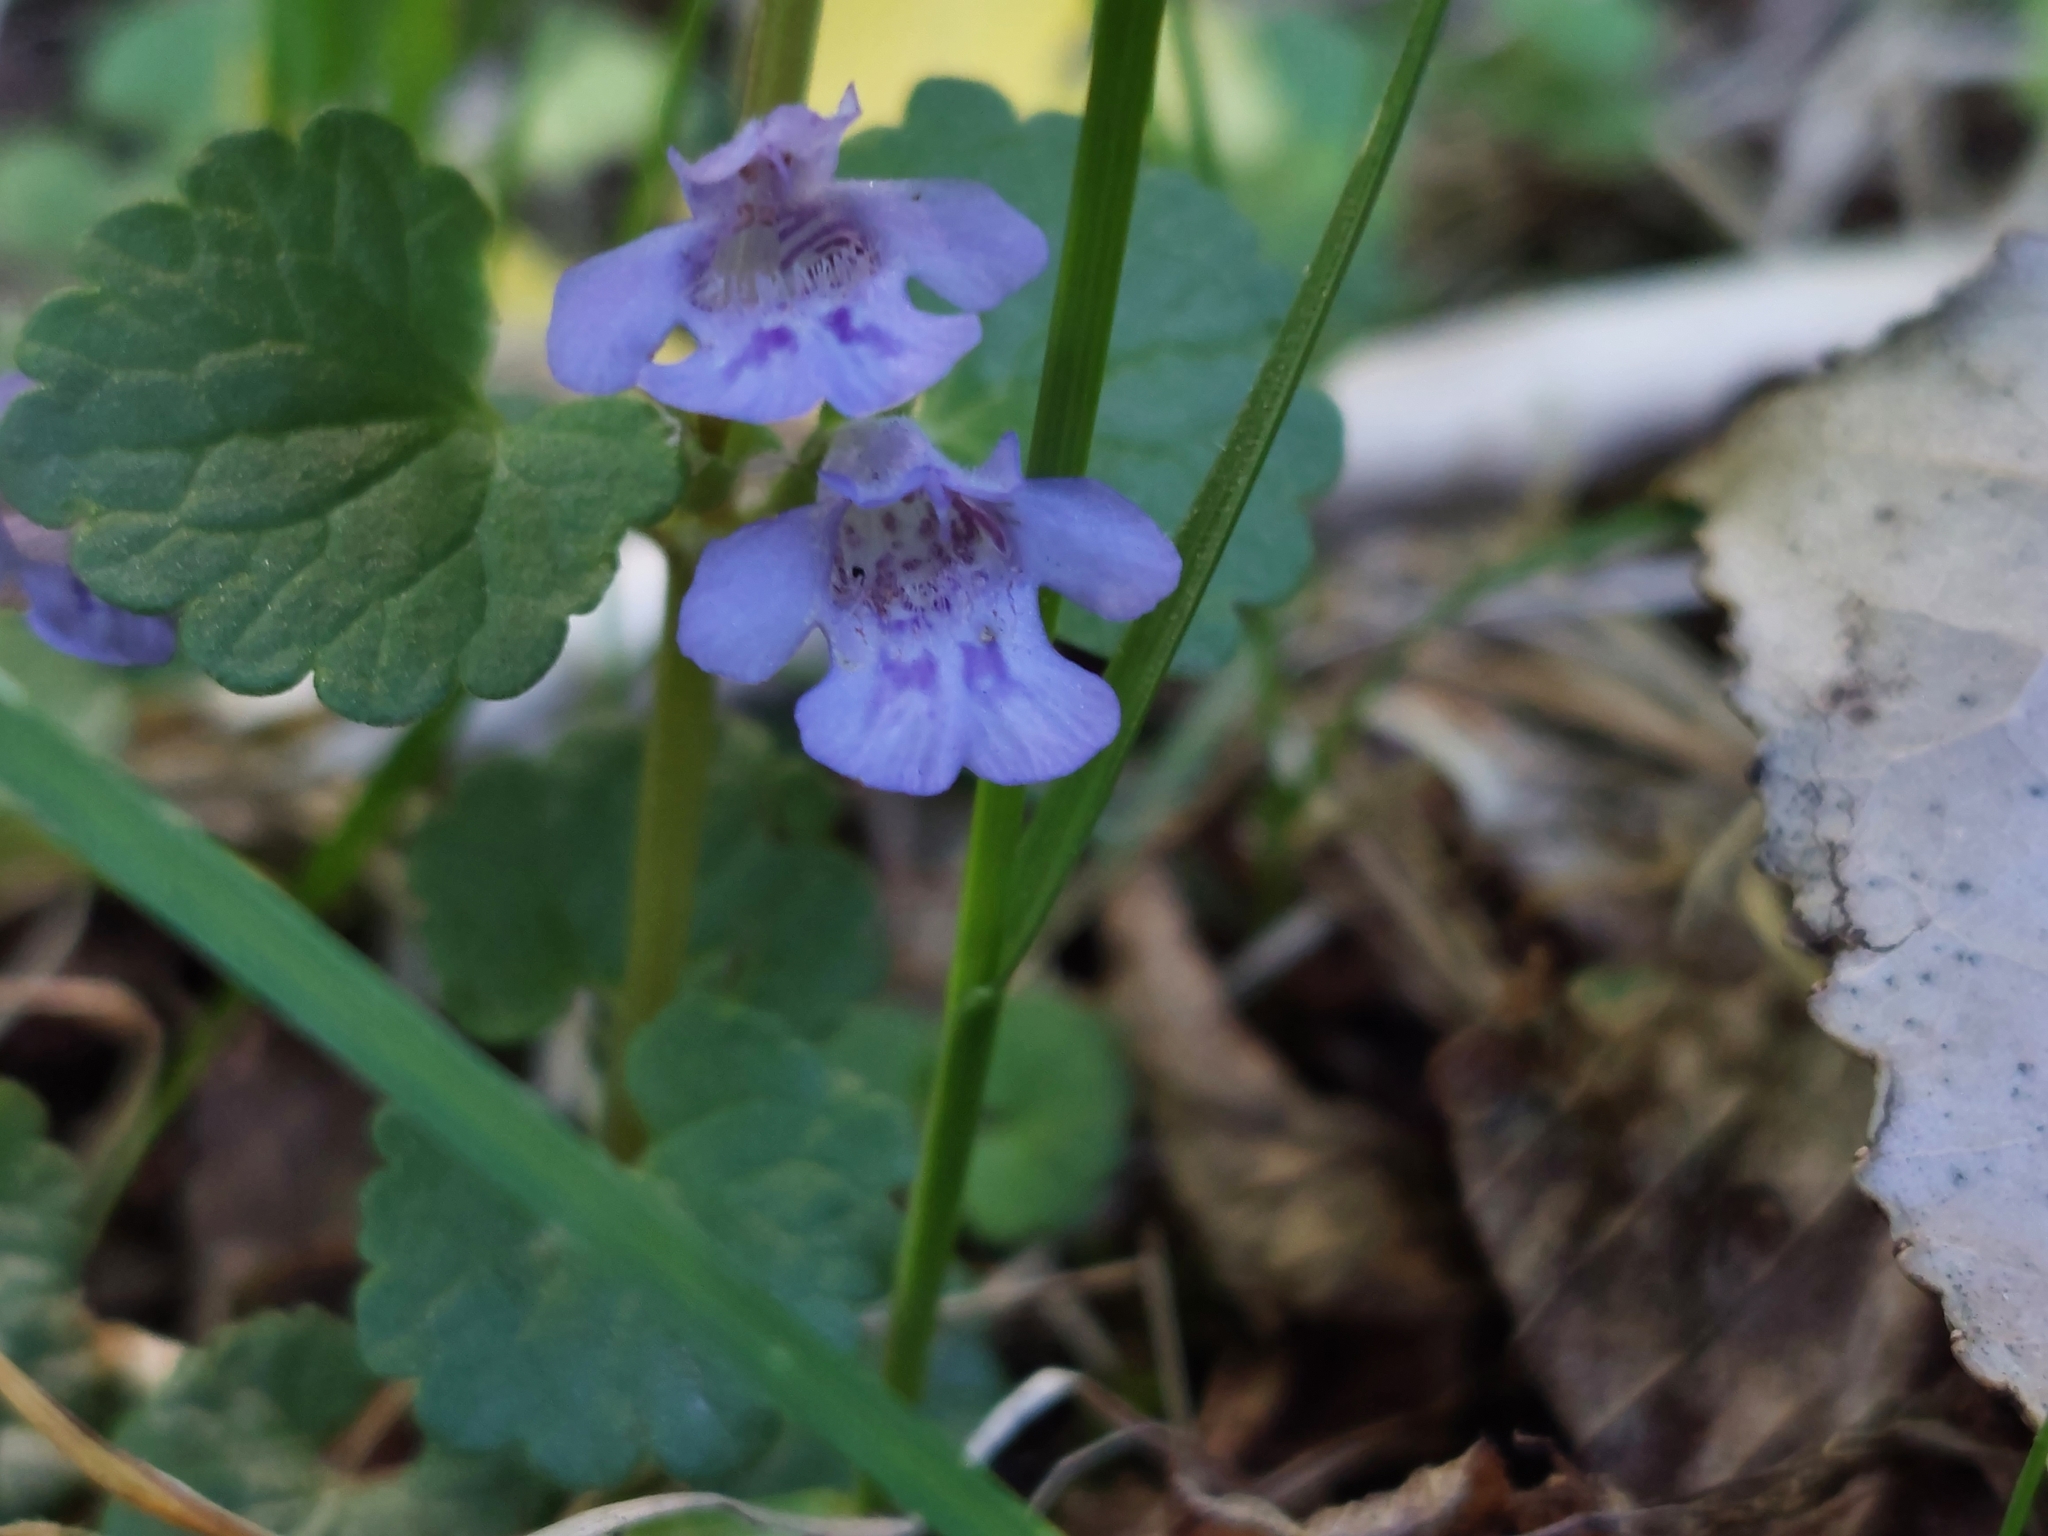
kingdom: Plantae
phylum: Tracheophyta
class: Magnoliopsida
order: Lamiales
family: Lamiaceae
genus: Glechoma
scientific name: Glechoma hederacea
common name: Ground ivy
